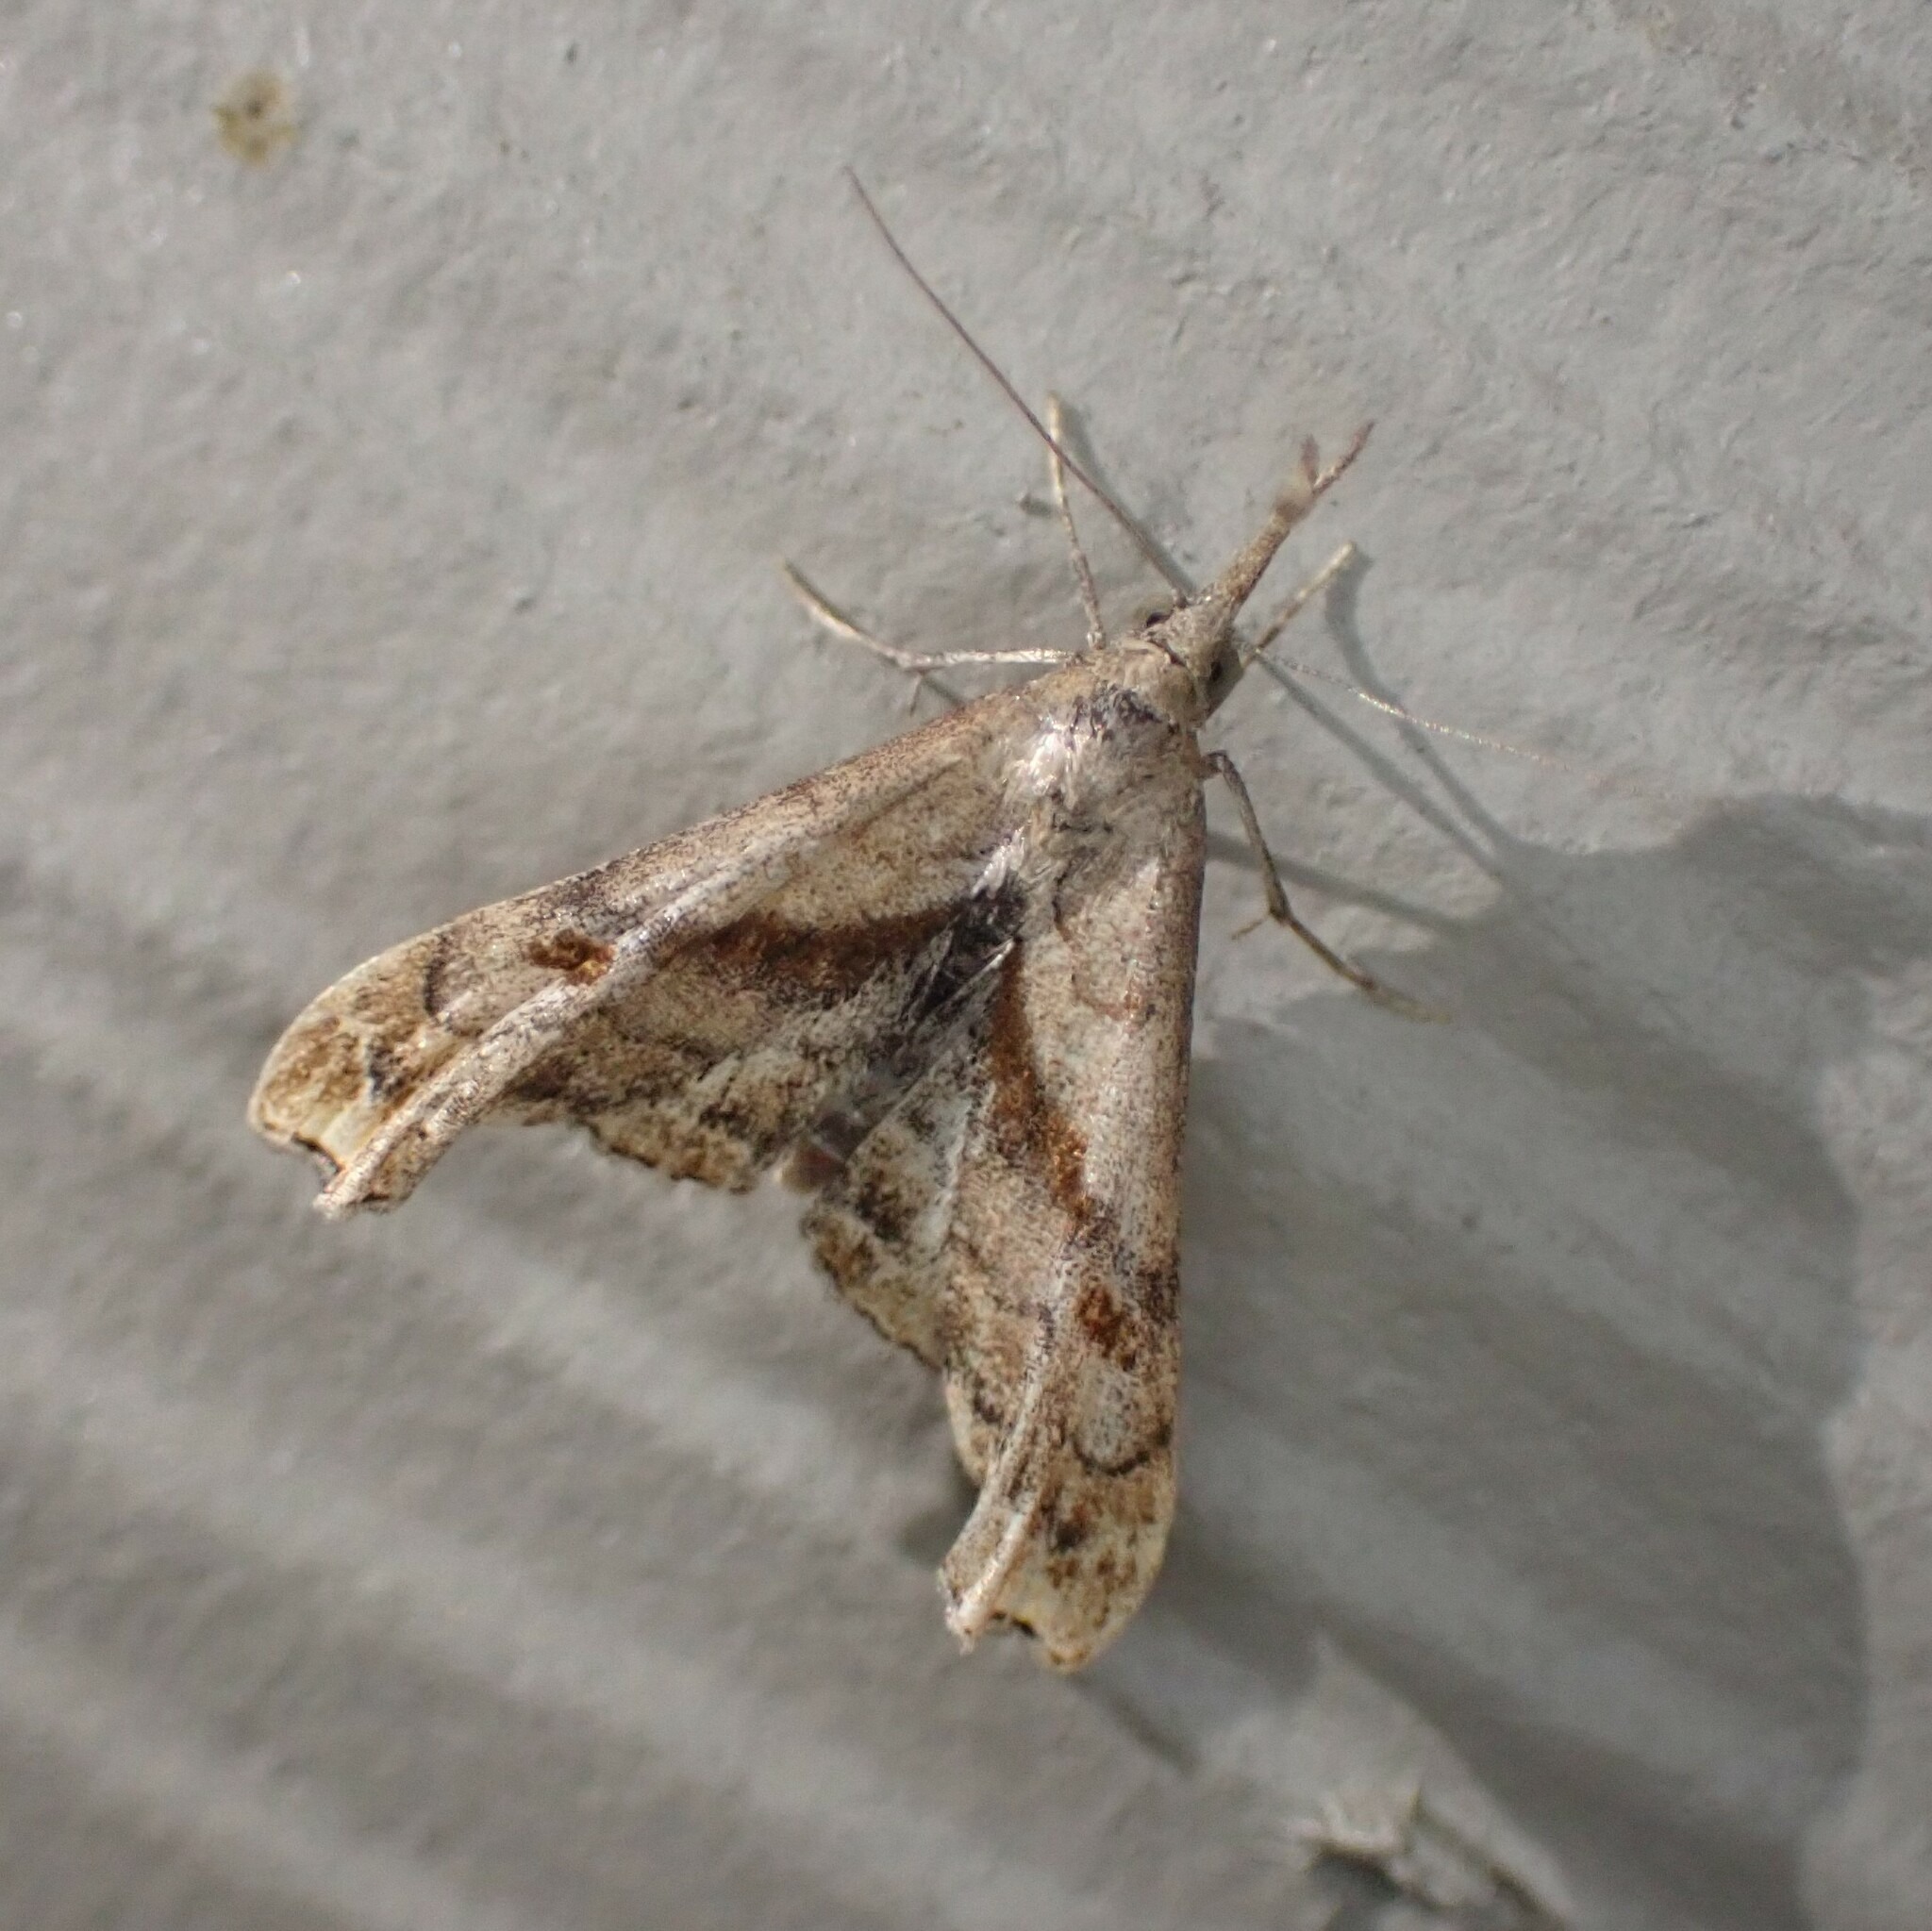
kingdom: Animalia
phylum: Arthropoda
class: Insecta
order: Lepidoptera
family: Erebidae
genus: Palthis
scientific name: Palthis angulalis
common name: Dark-spotted palthis moth
